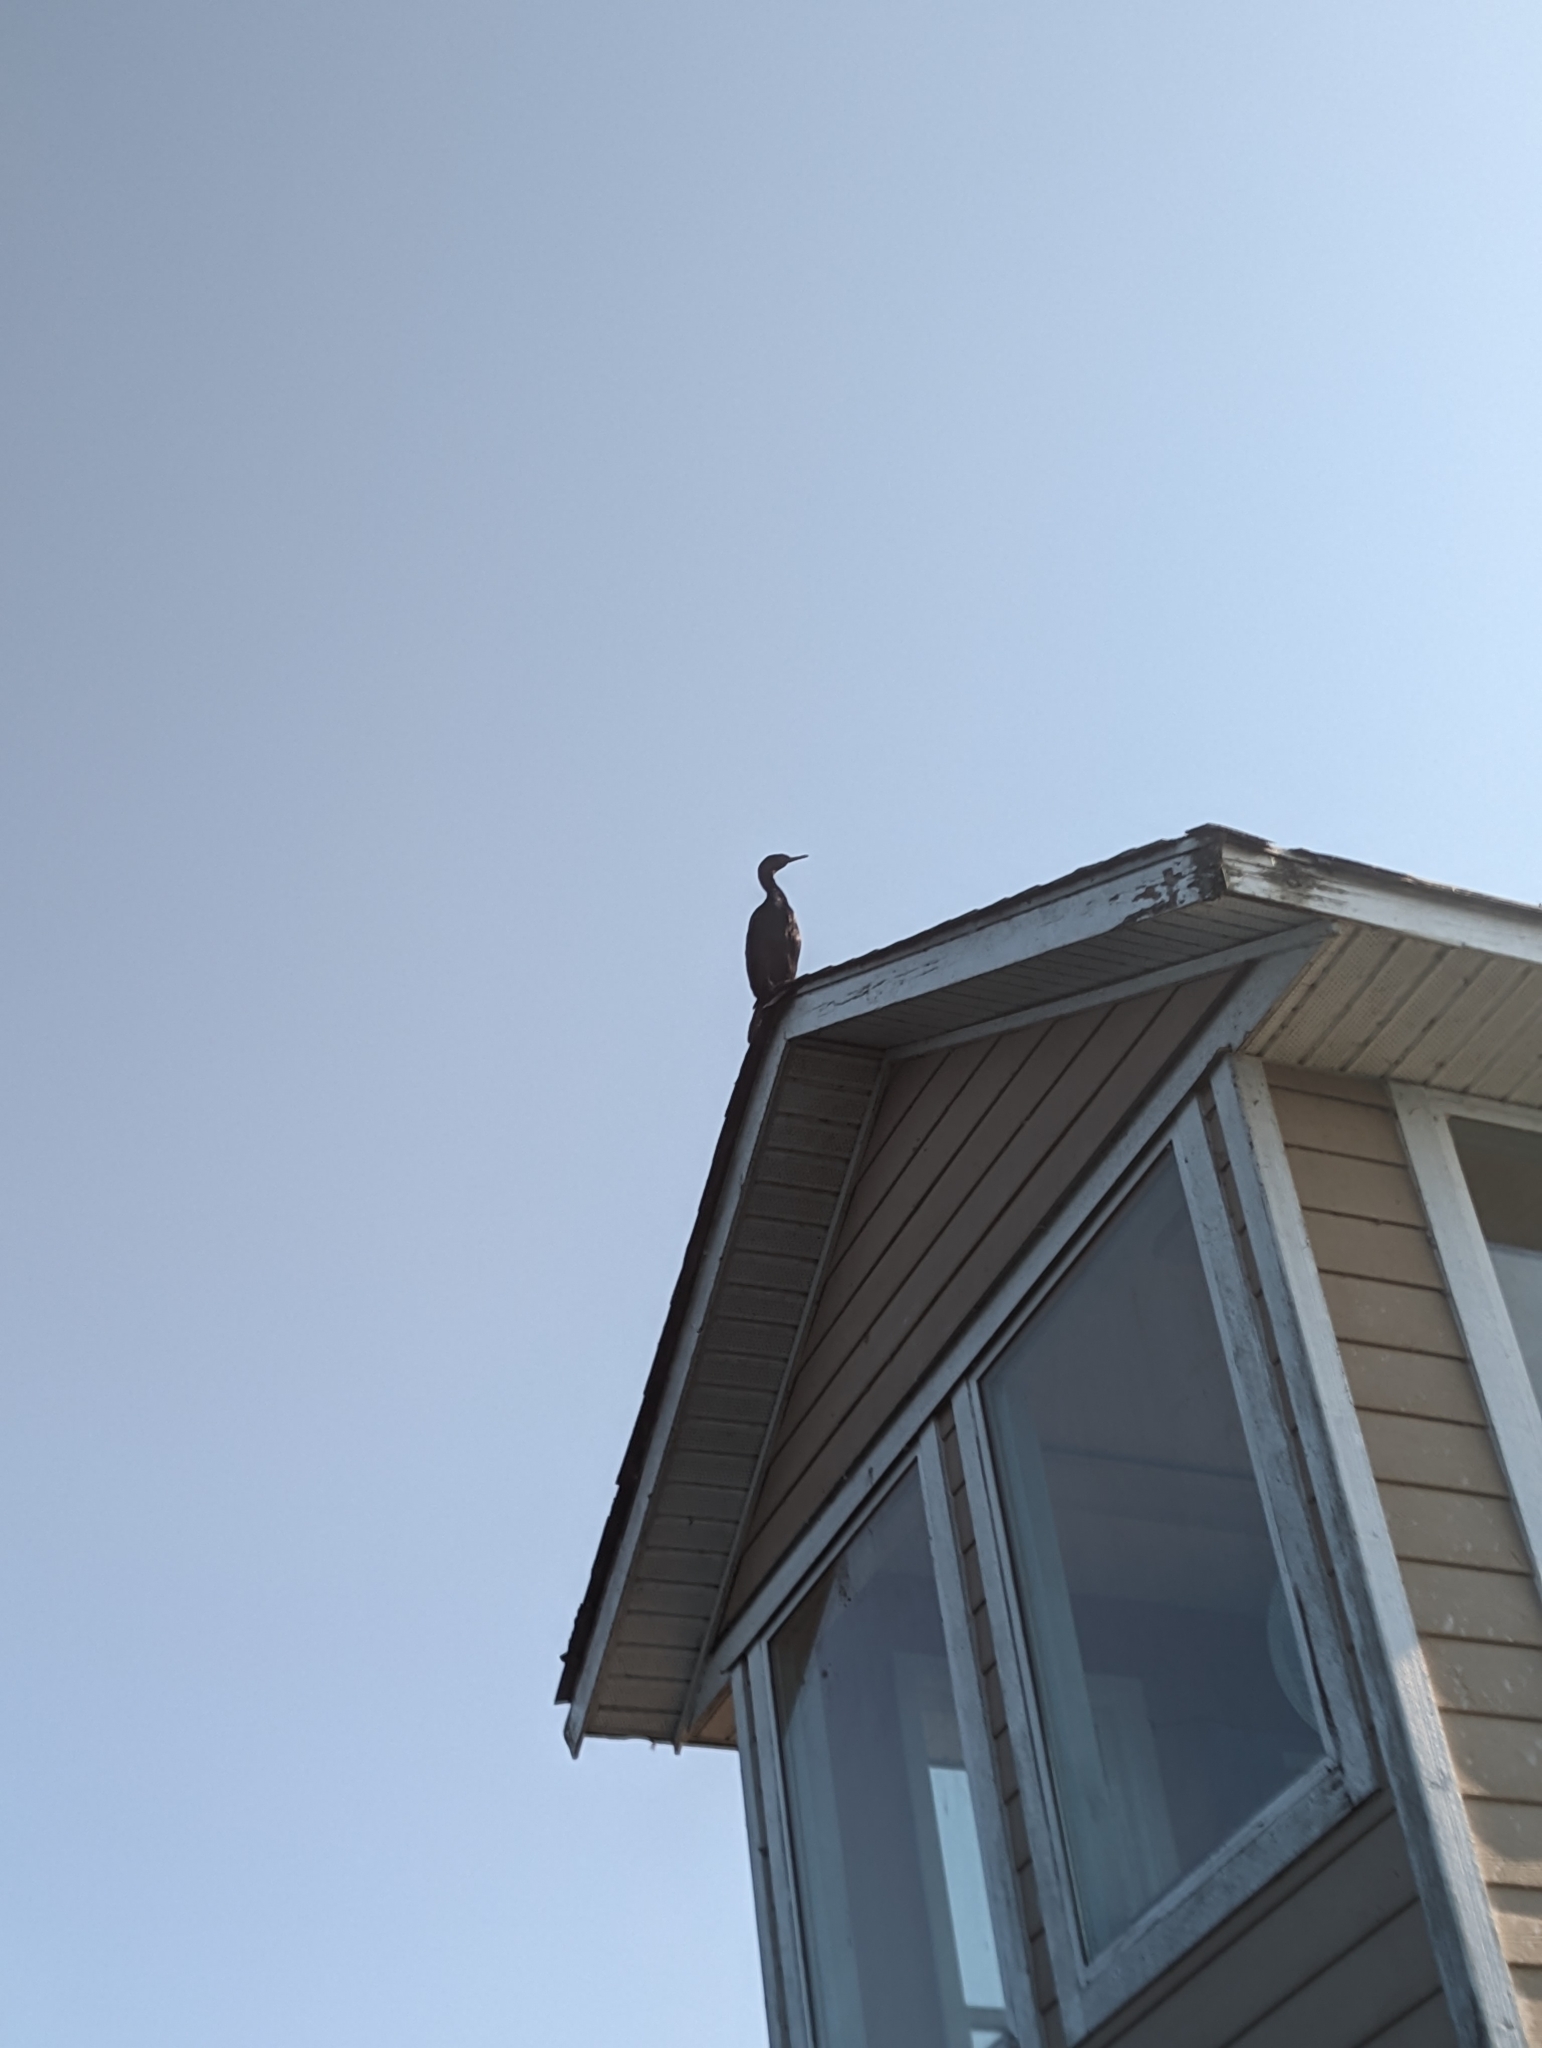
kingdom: Animalia
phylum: Chordata
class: Aves
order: Suliformes
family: Phalacrocoracidae
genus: Phalacrocorax
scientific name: Phalacrocorax pelagicus
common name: Pelagic cormorant
